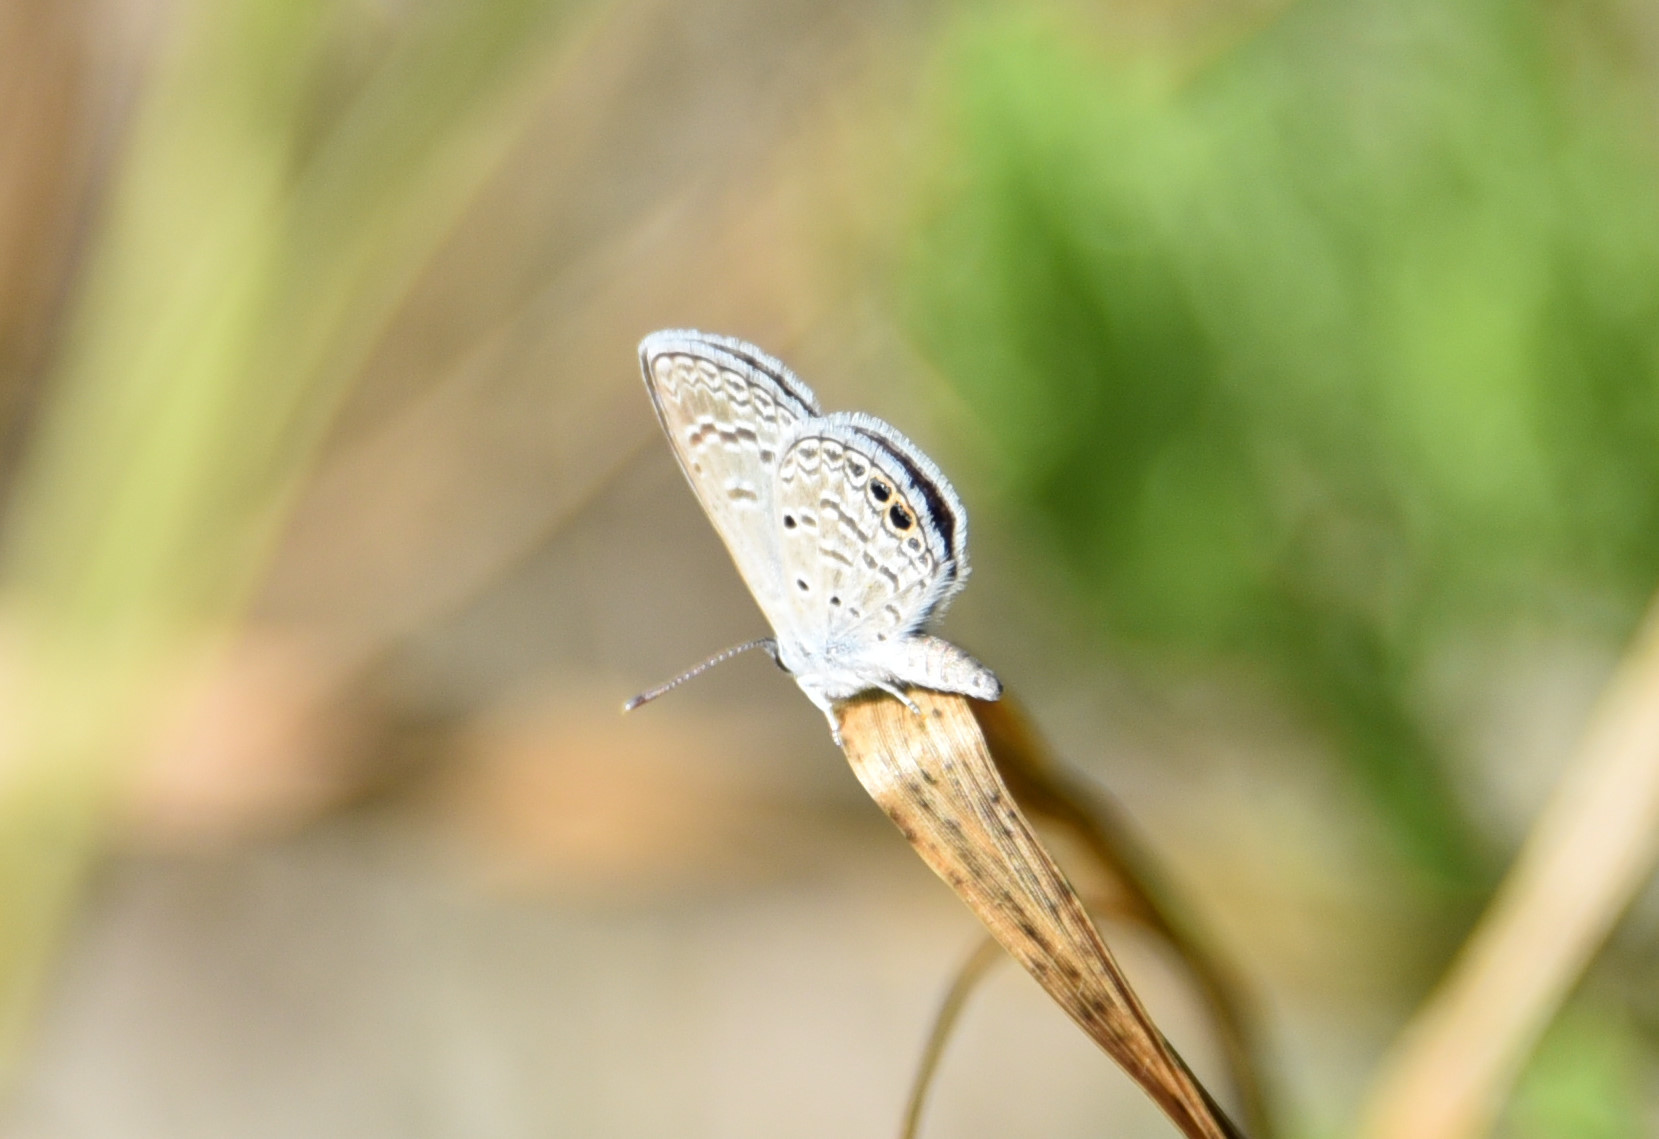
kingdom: Animalia
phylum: Arthropoda
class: Insecta
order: Lepidoptera
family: Lycaenidae
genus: Hemiargus
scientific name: Hemiargus ceraunus
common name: Ceraunus blue
